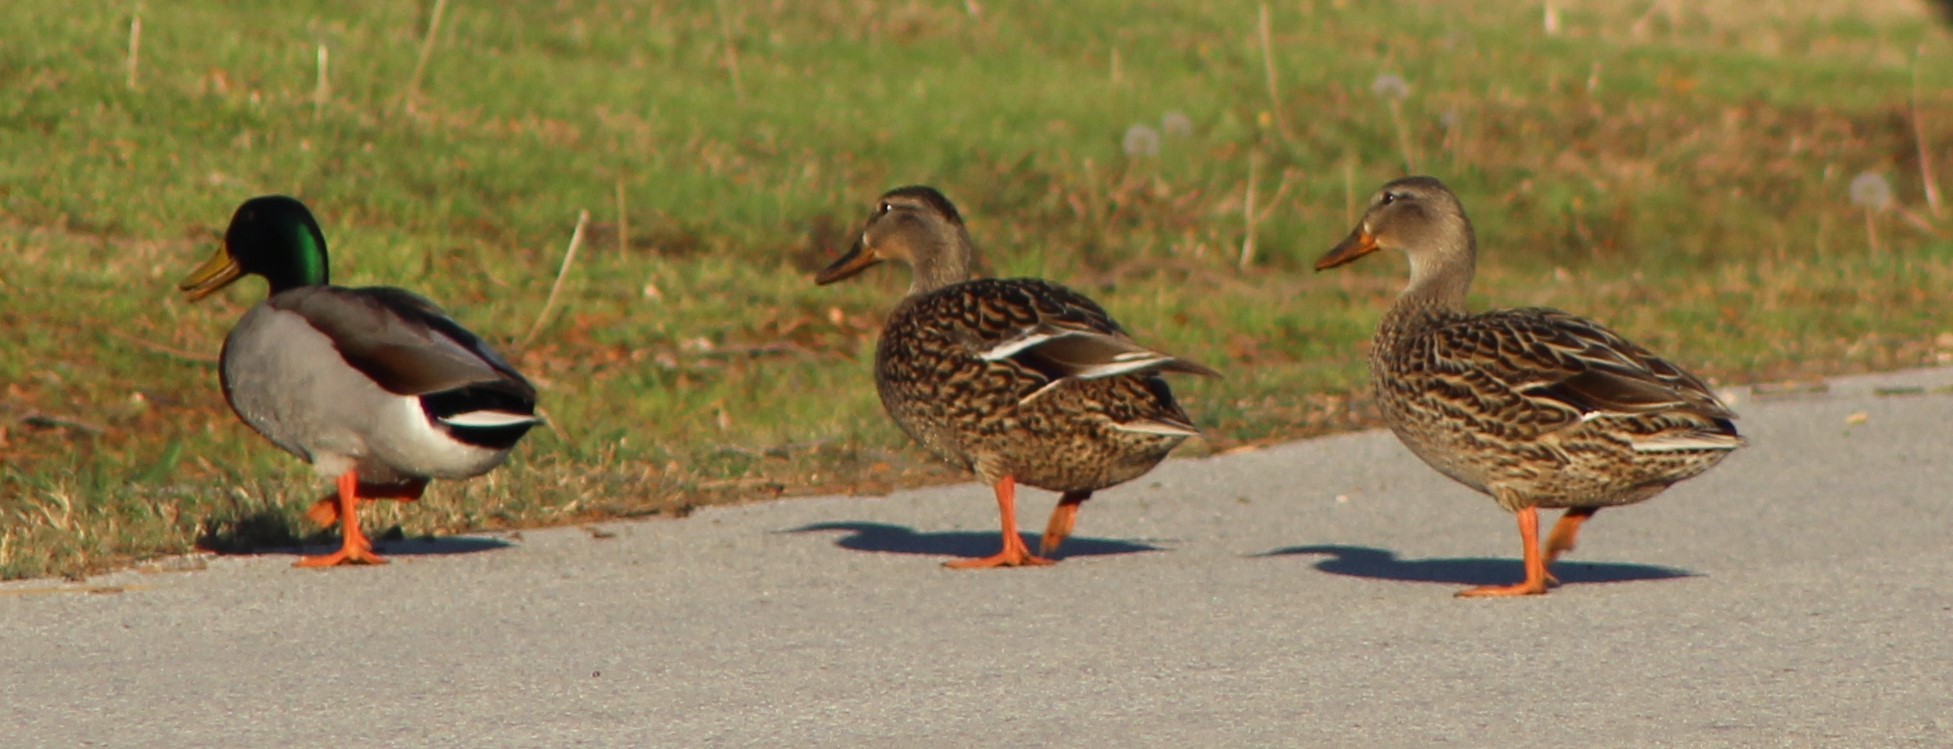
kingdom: Animalia
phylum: Chordata
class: Aves
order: Anseriformes
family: Anatidae
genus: Anas
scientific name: Anas platyrhynchos
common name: Mallard
